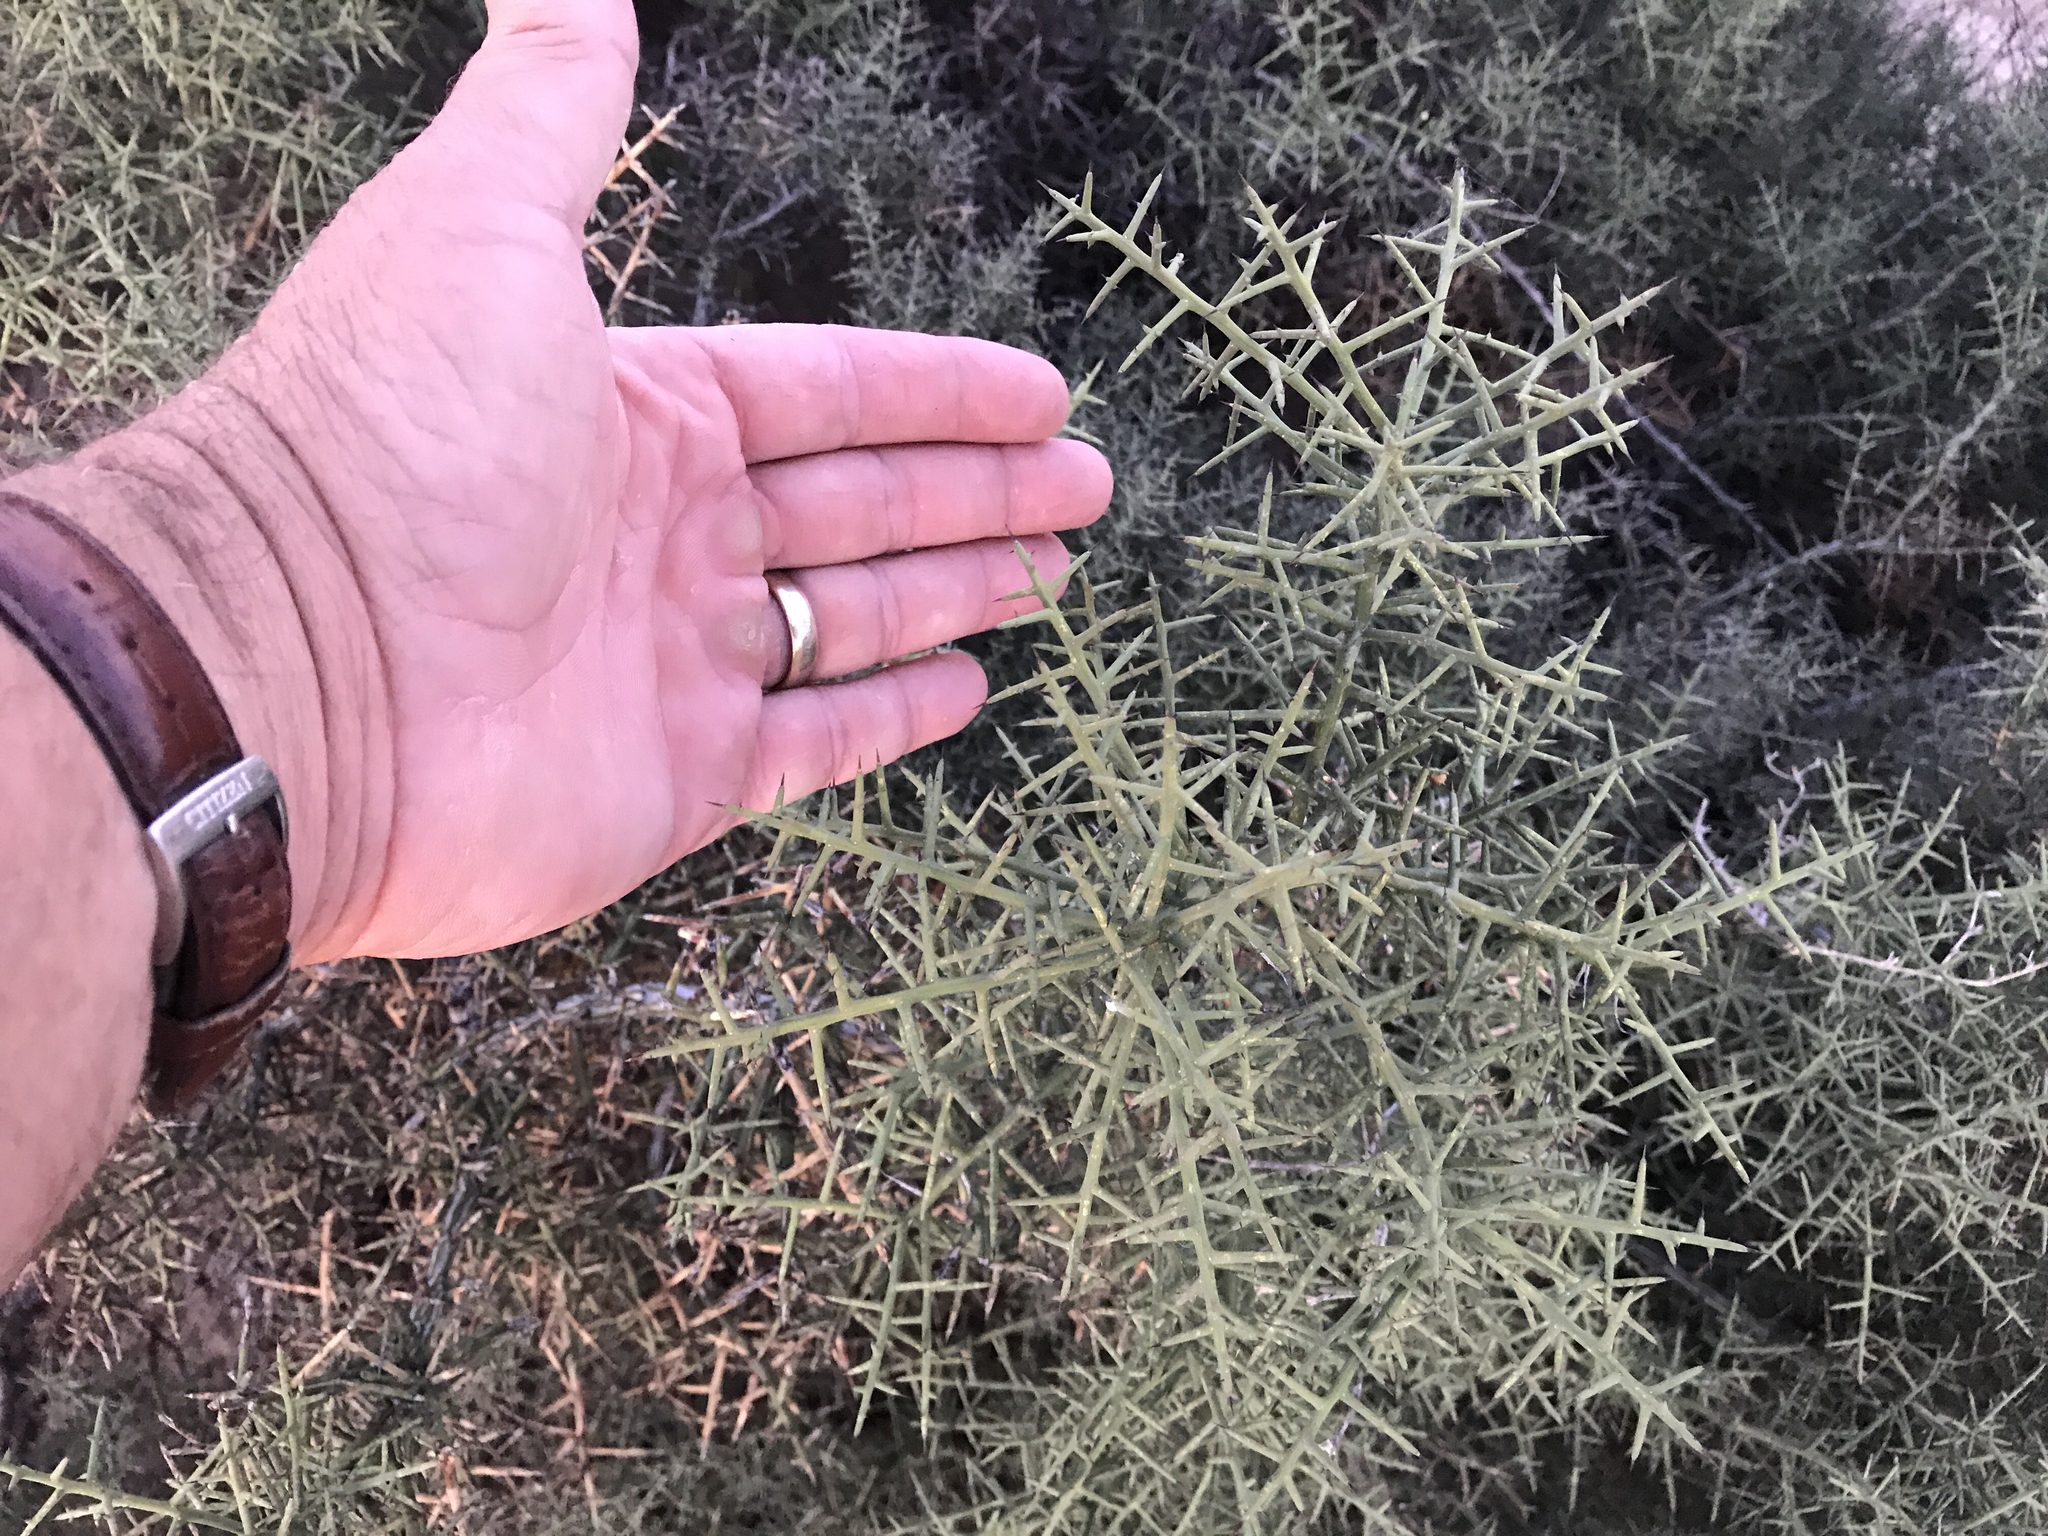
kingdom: Plantae
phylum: Tracheophyta
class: Magnoliopsida
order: Brassicales
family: Koeberliniaceae
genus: Koeberlinia
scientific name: Koeberlinia spinosa
